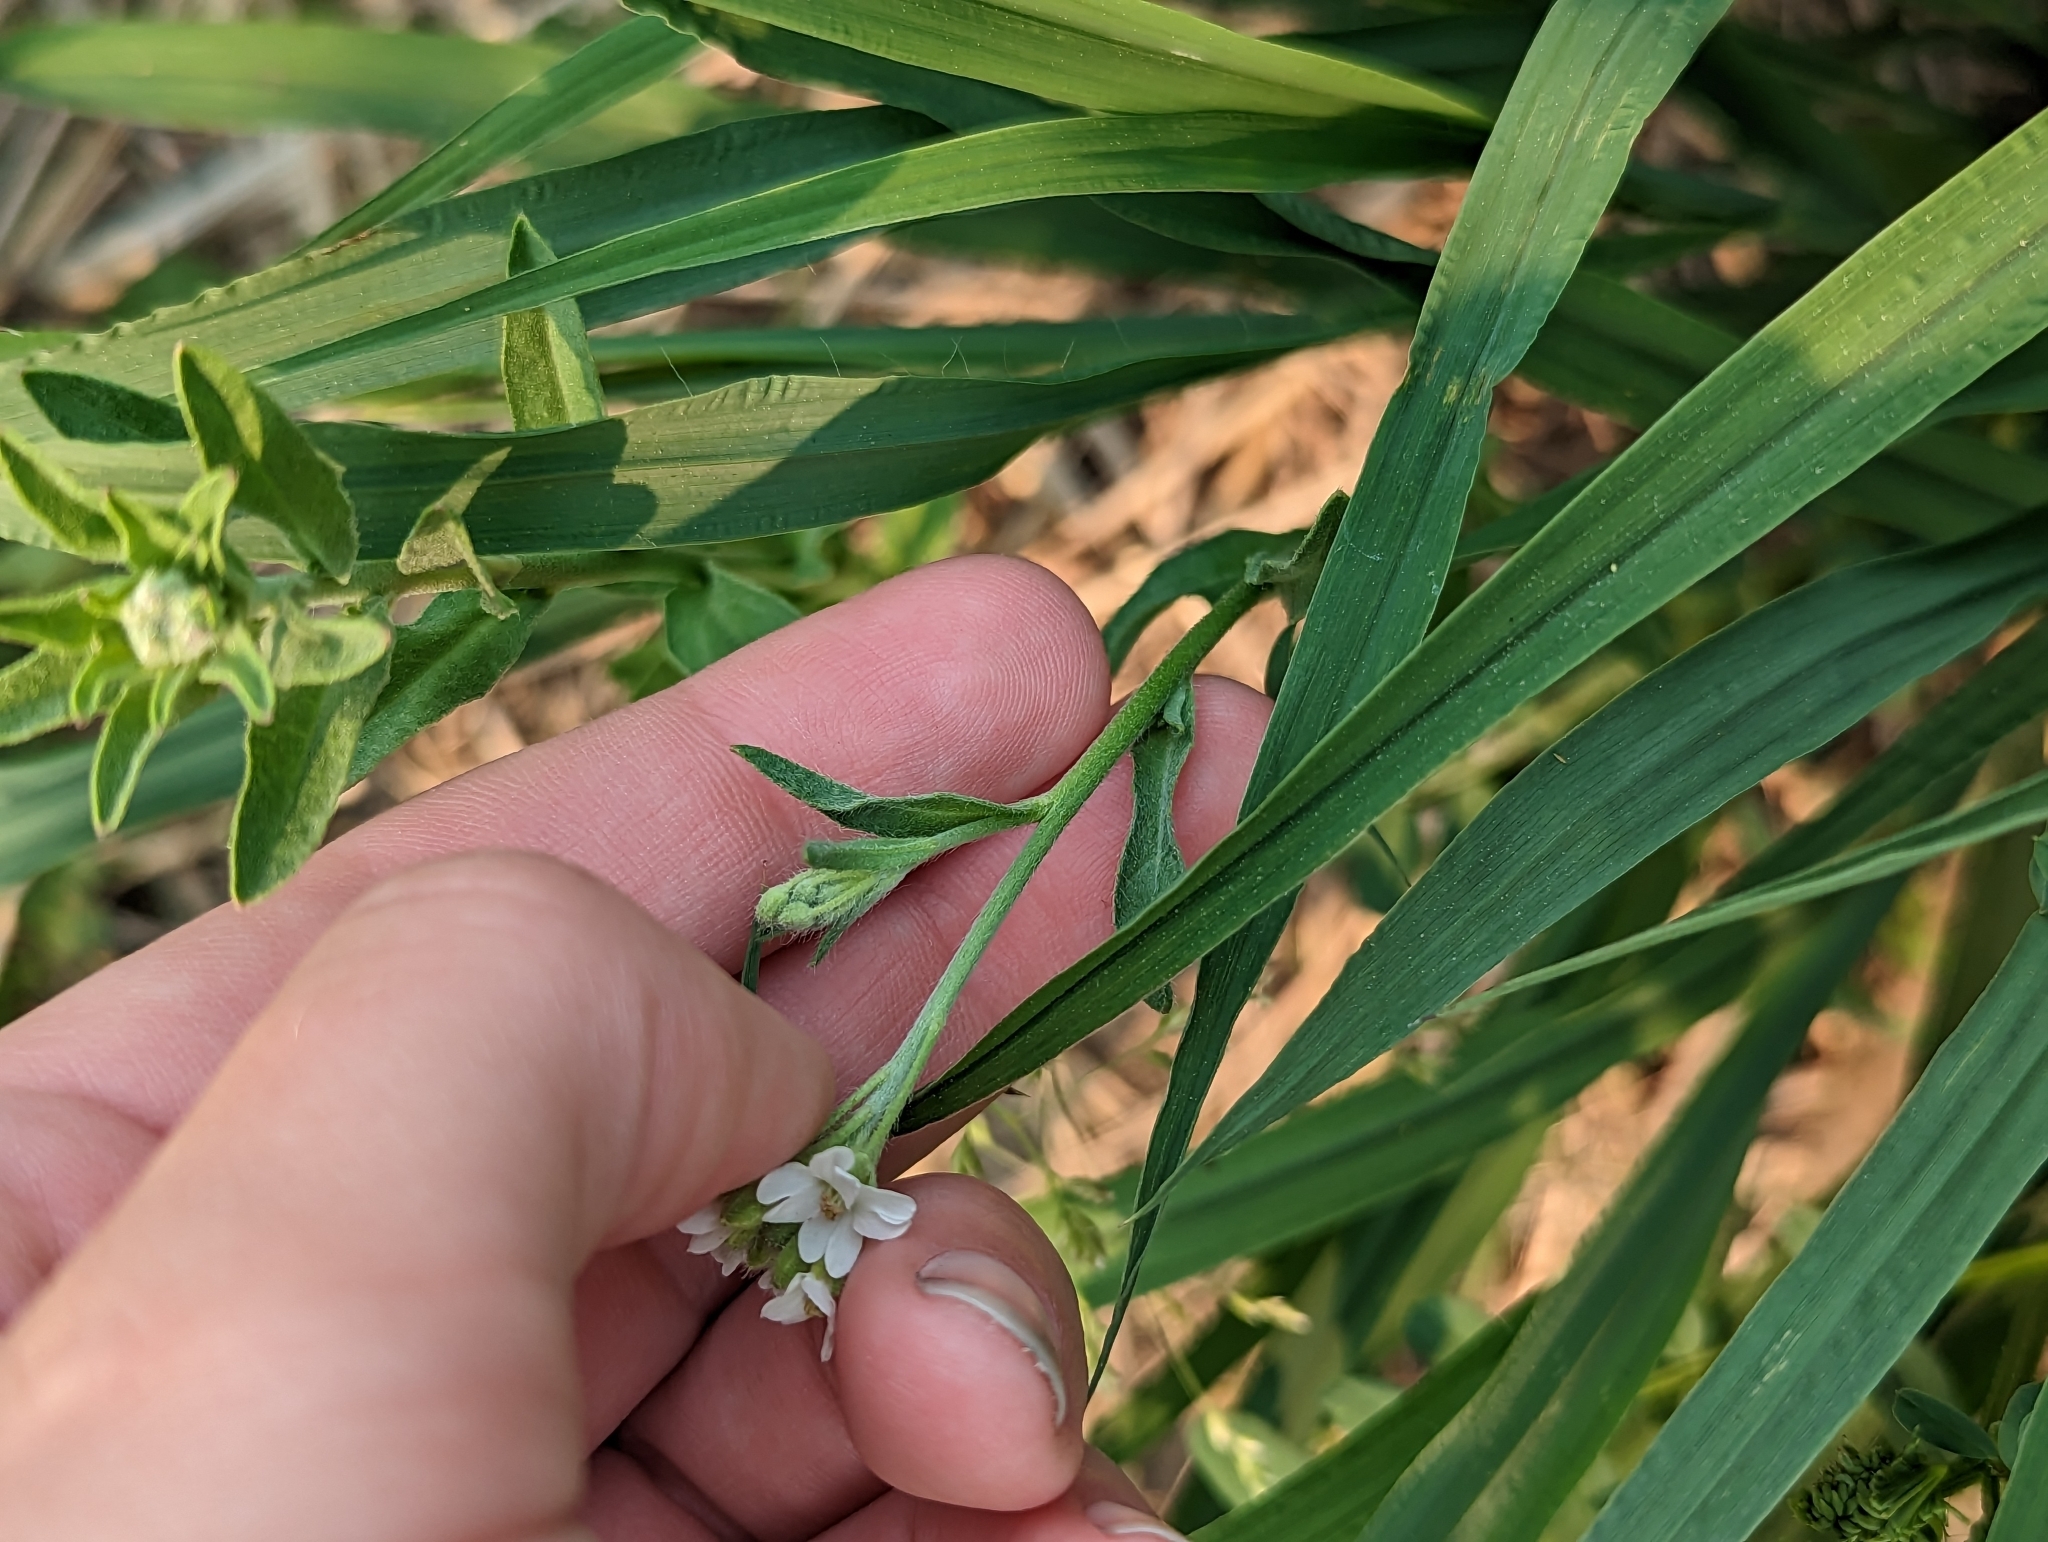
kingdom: Plantae
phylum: Tracheophyta
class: Magnoliopsida
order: Brassicales
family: Brassicaceae
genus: Berteroa
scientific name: Berteroa incana
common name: Hoary alison
